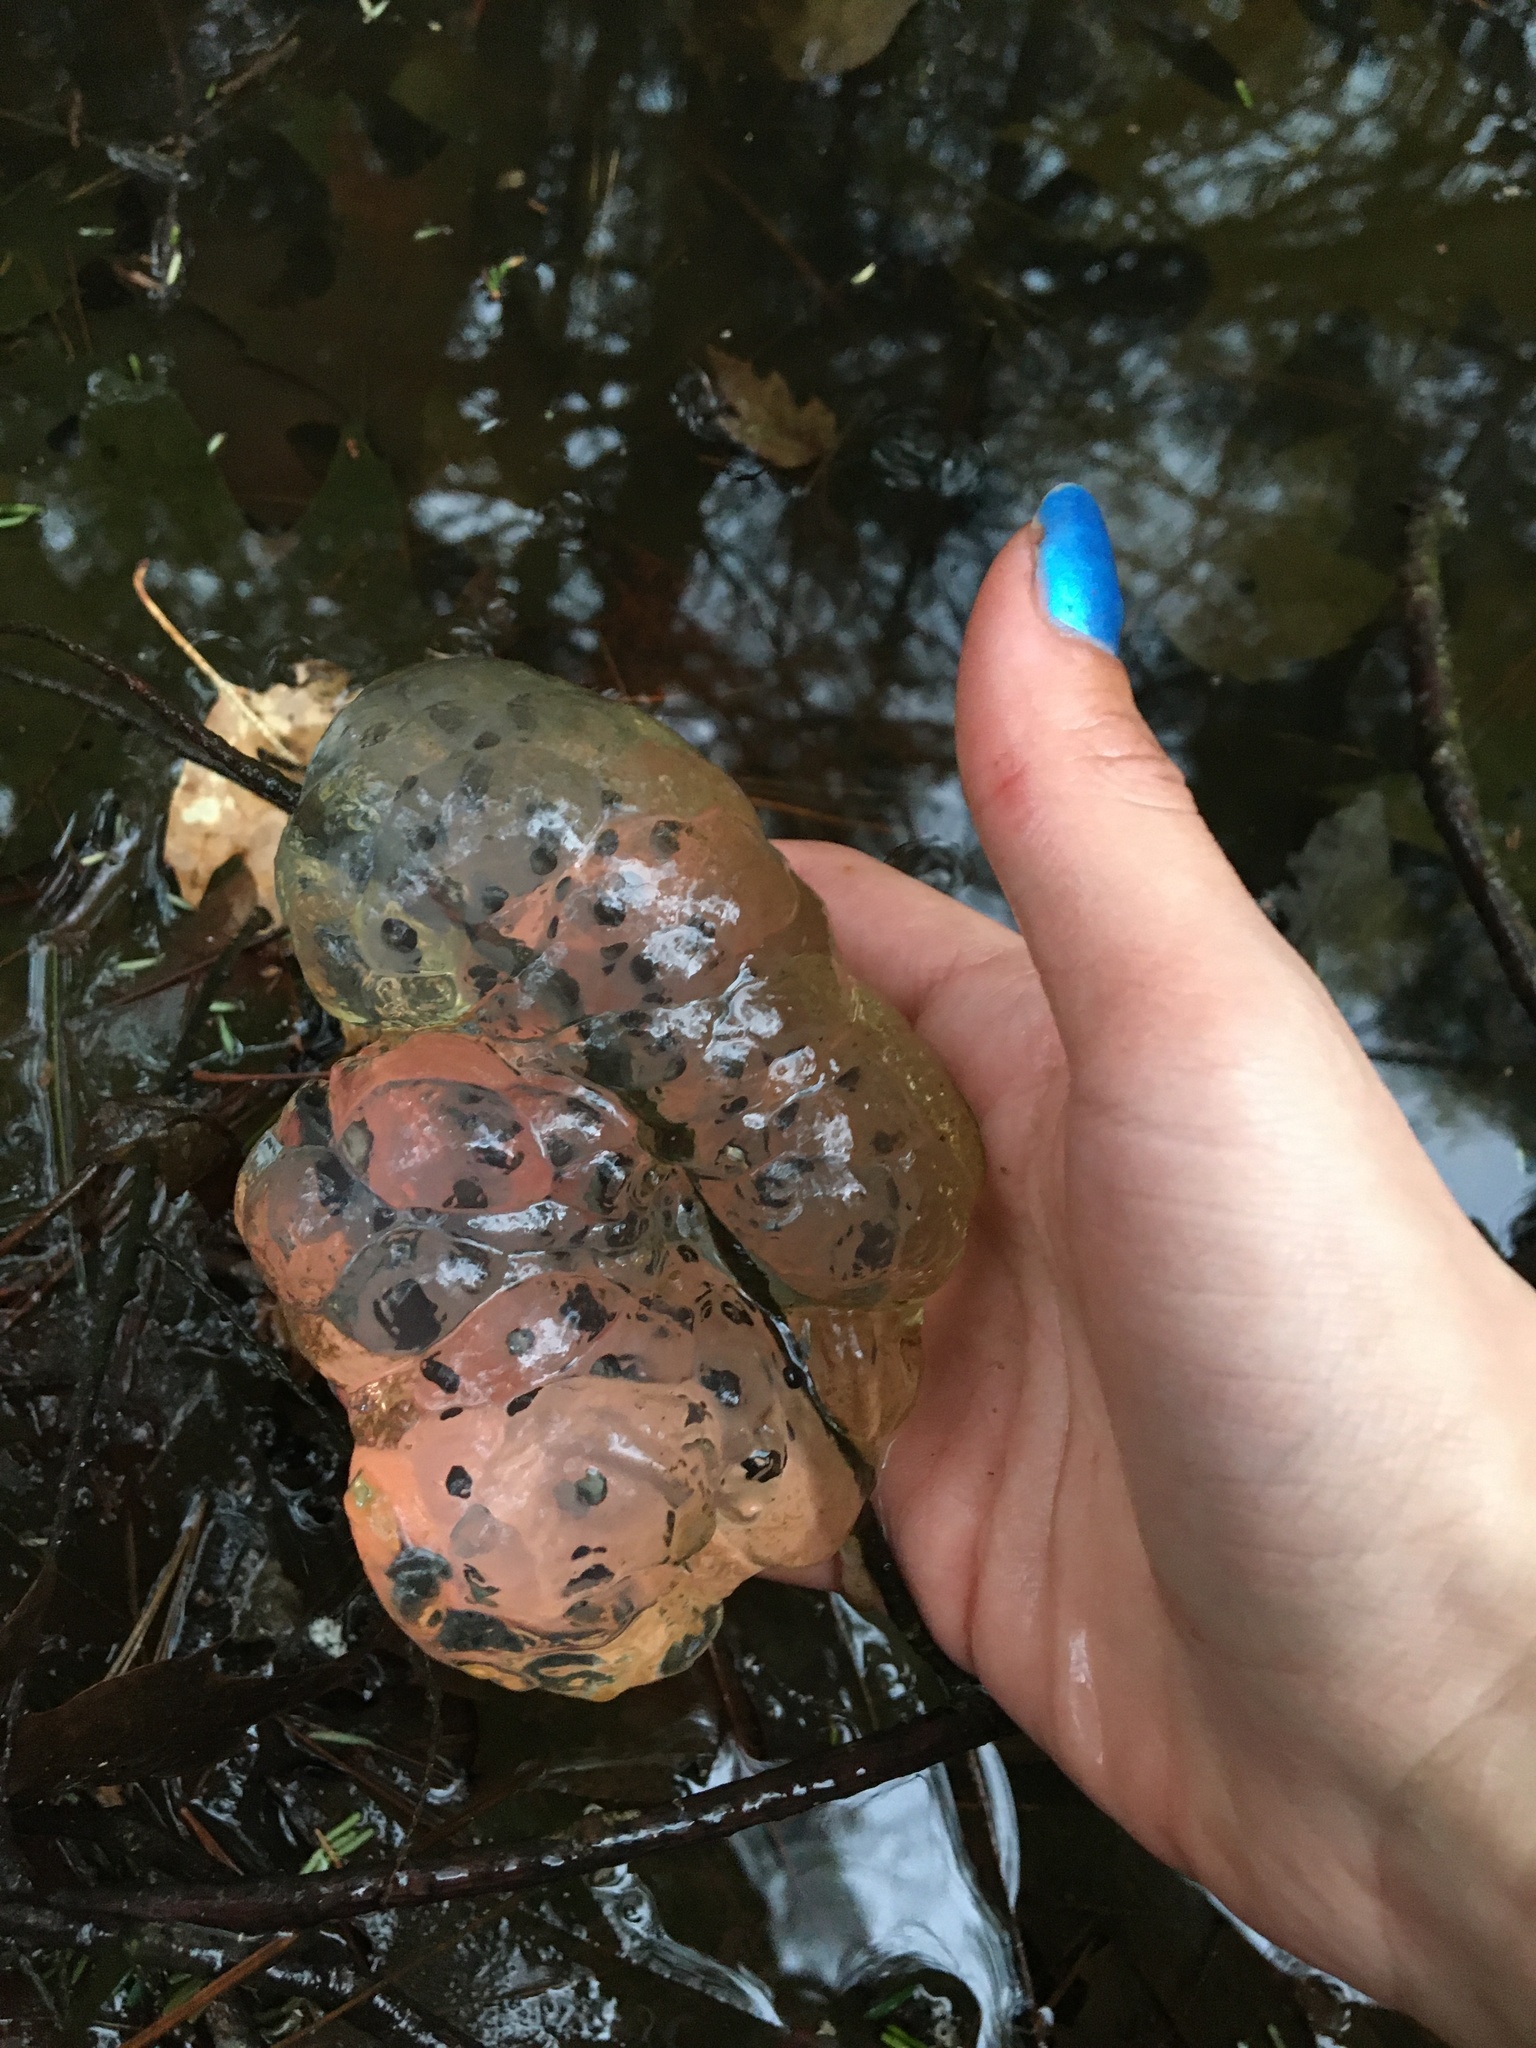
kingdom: Animalia
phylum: Chordata
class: Amphibia
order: Caudata
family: Ambystomatidae
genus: Ambystoma
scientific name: Ambystoma maculatum
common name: Spotted salamander
